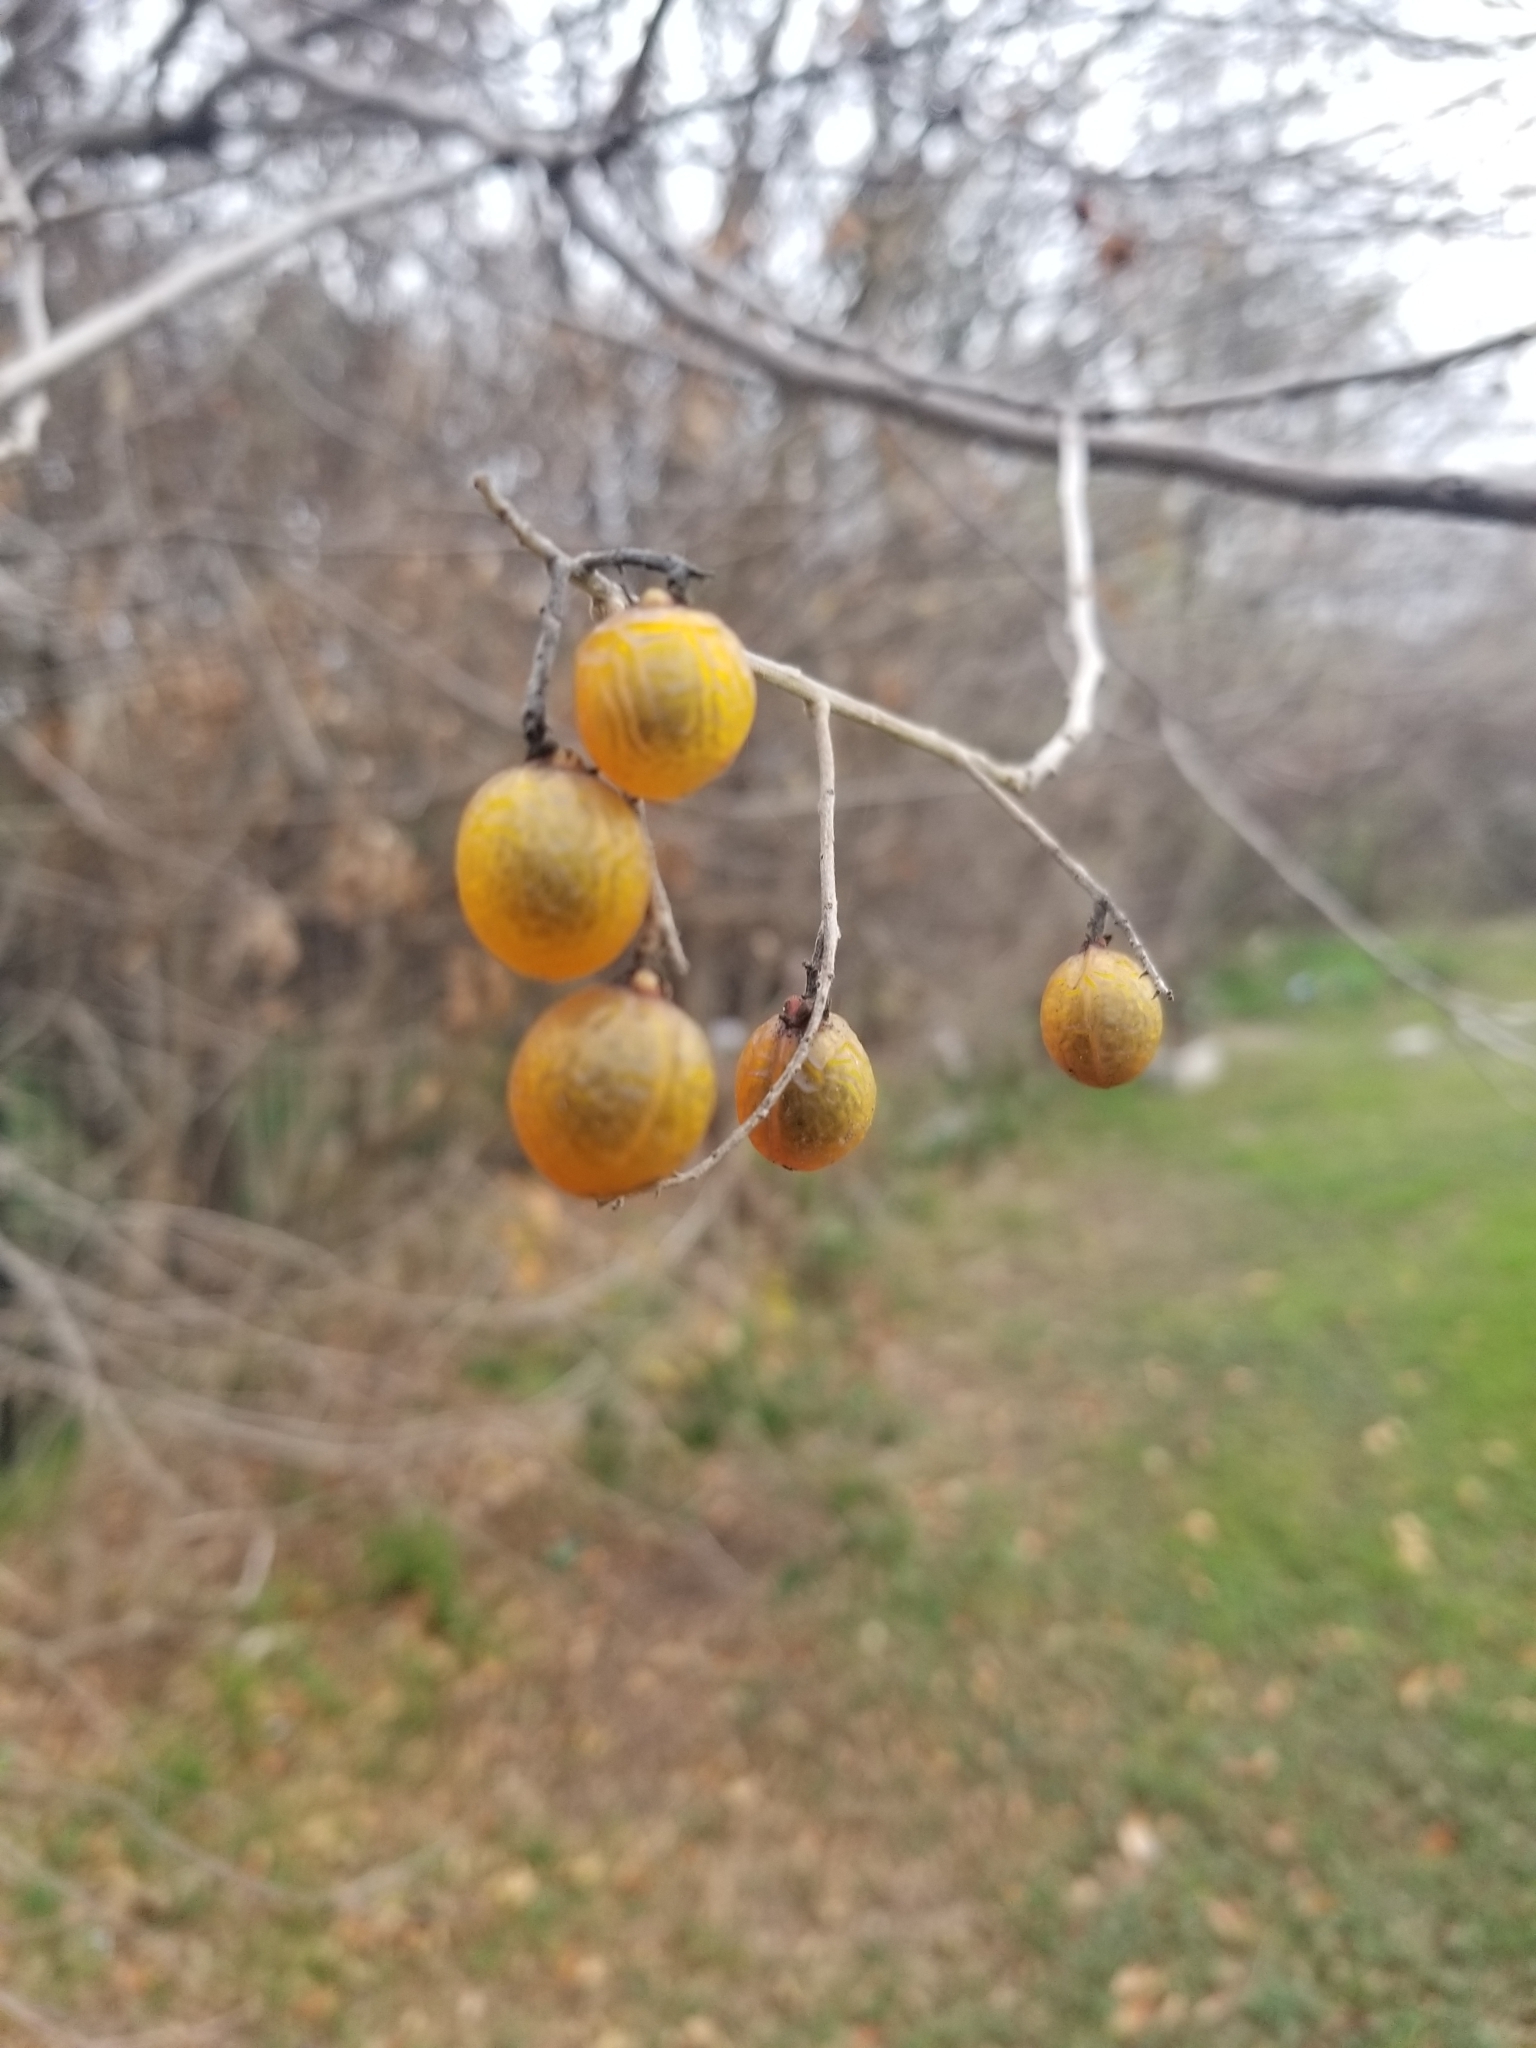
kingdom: Plantae
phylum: Tracheophyta
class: Magnoliopsida
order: Sapindales
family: Sapindaceae
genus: Sapindus
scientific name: Sapindus drummondii
